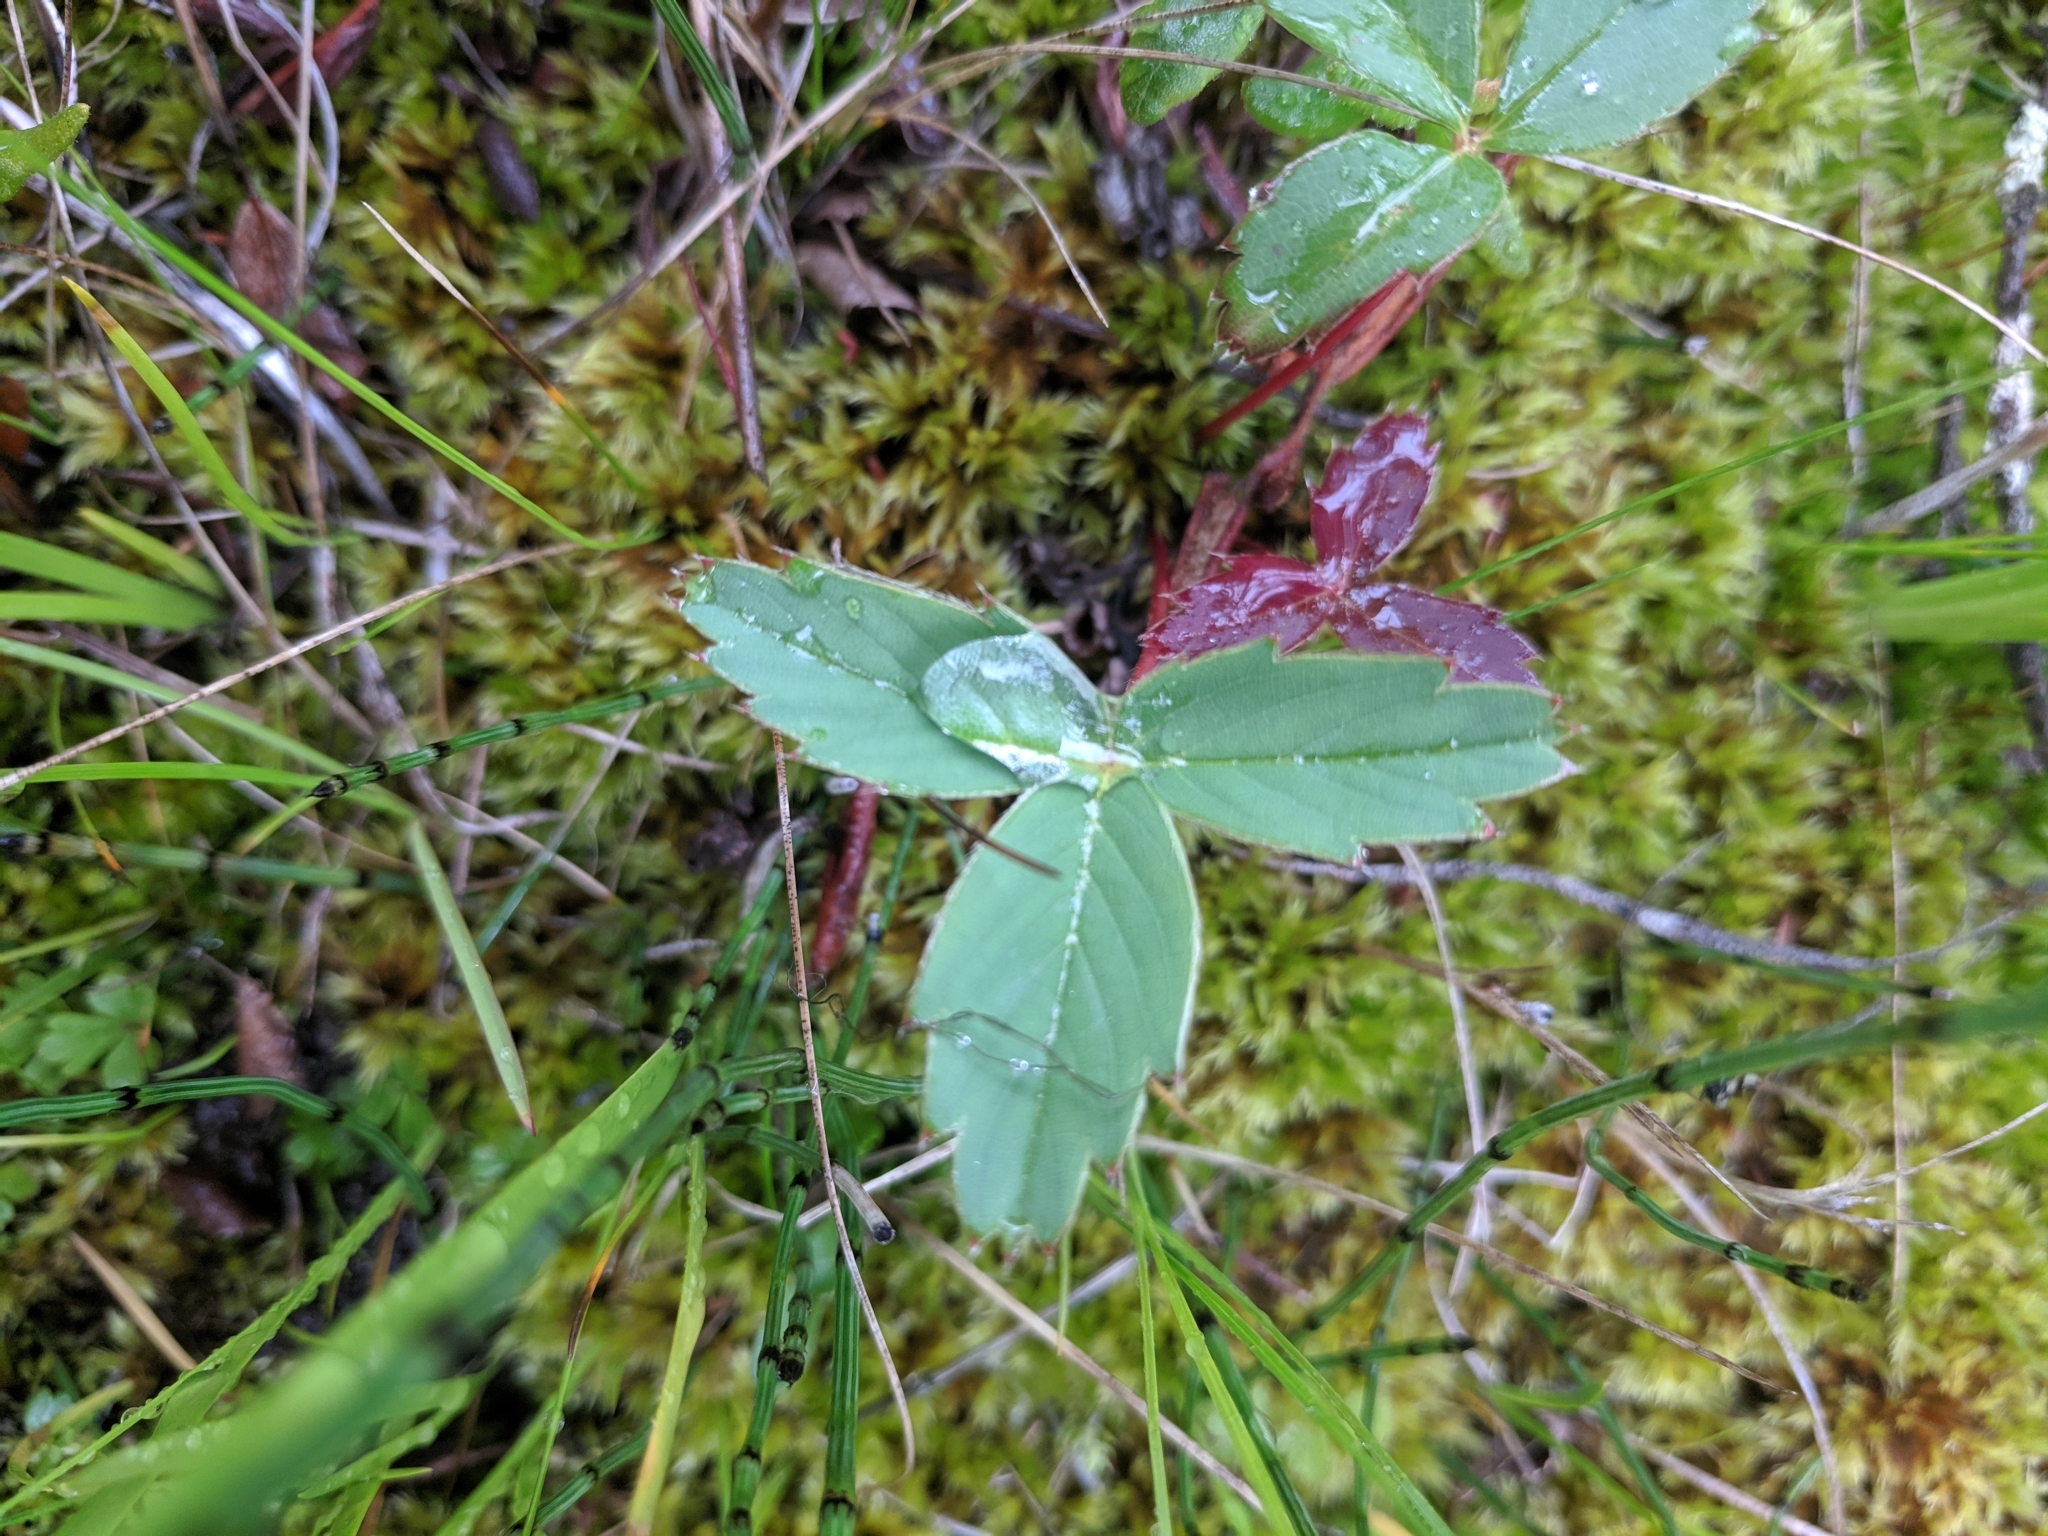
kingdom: Plantae
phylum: Tracheophyta
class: Magnoliopsida
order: Rosales
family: Rosaceae
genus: Fragaria
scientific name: Fragaria virginiana
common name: Thickleaved wild strawberry
